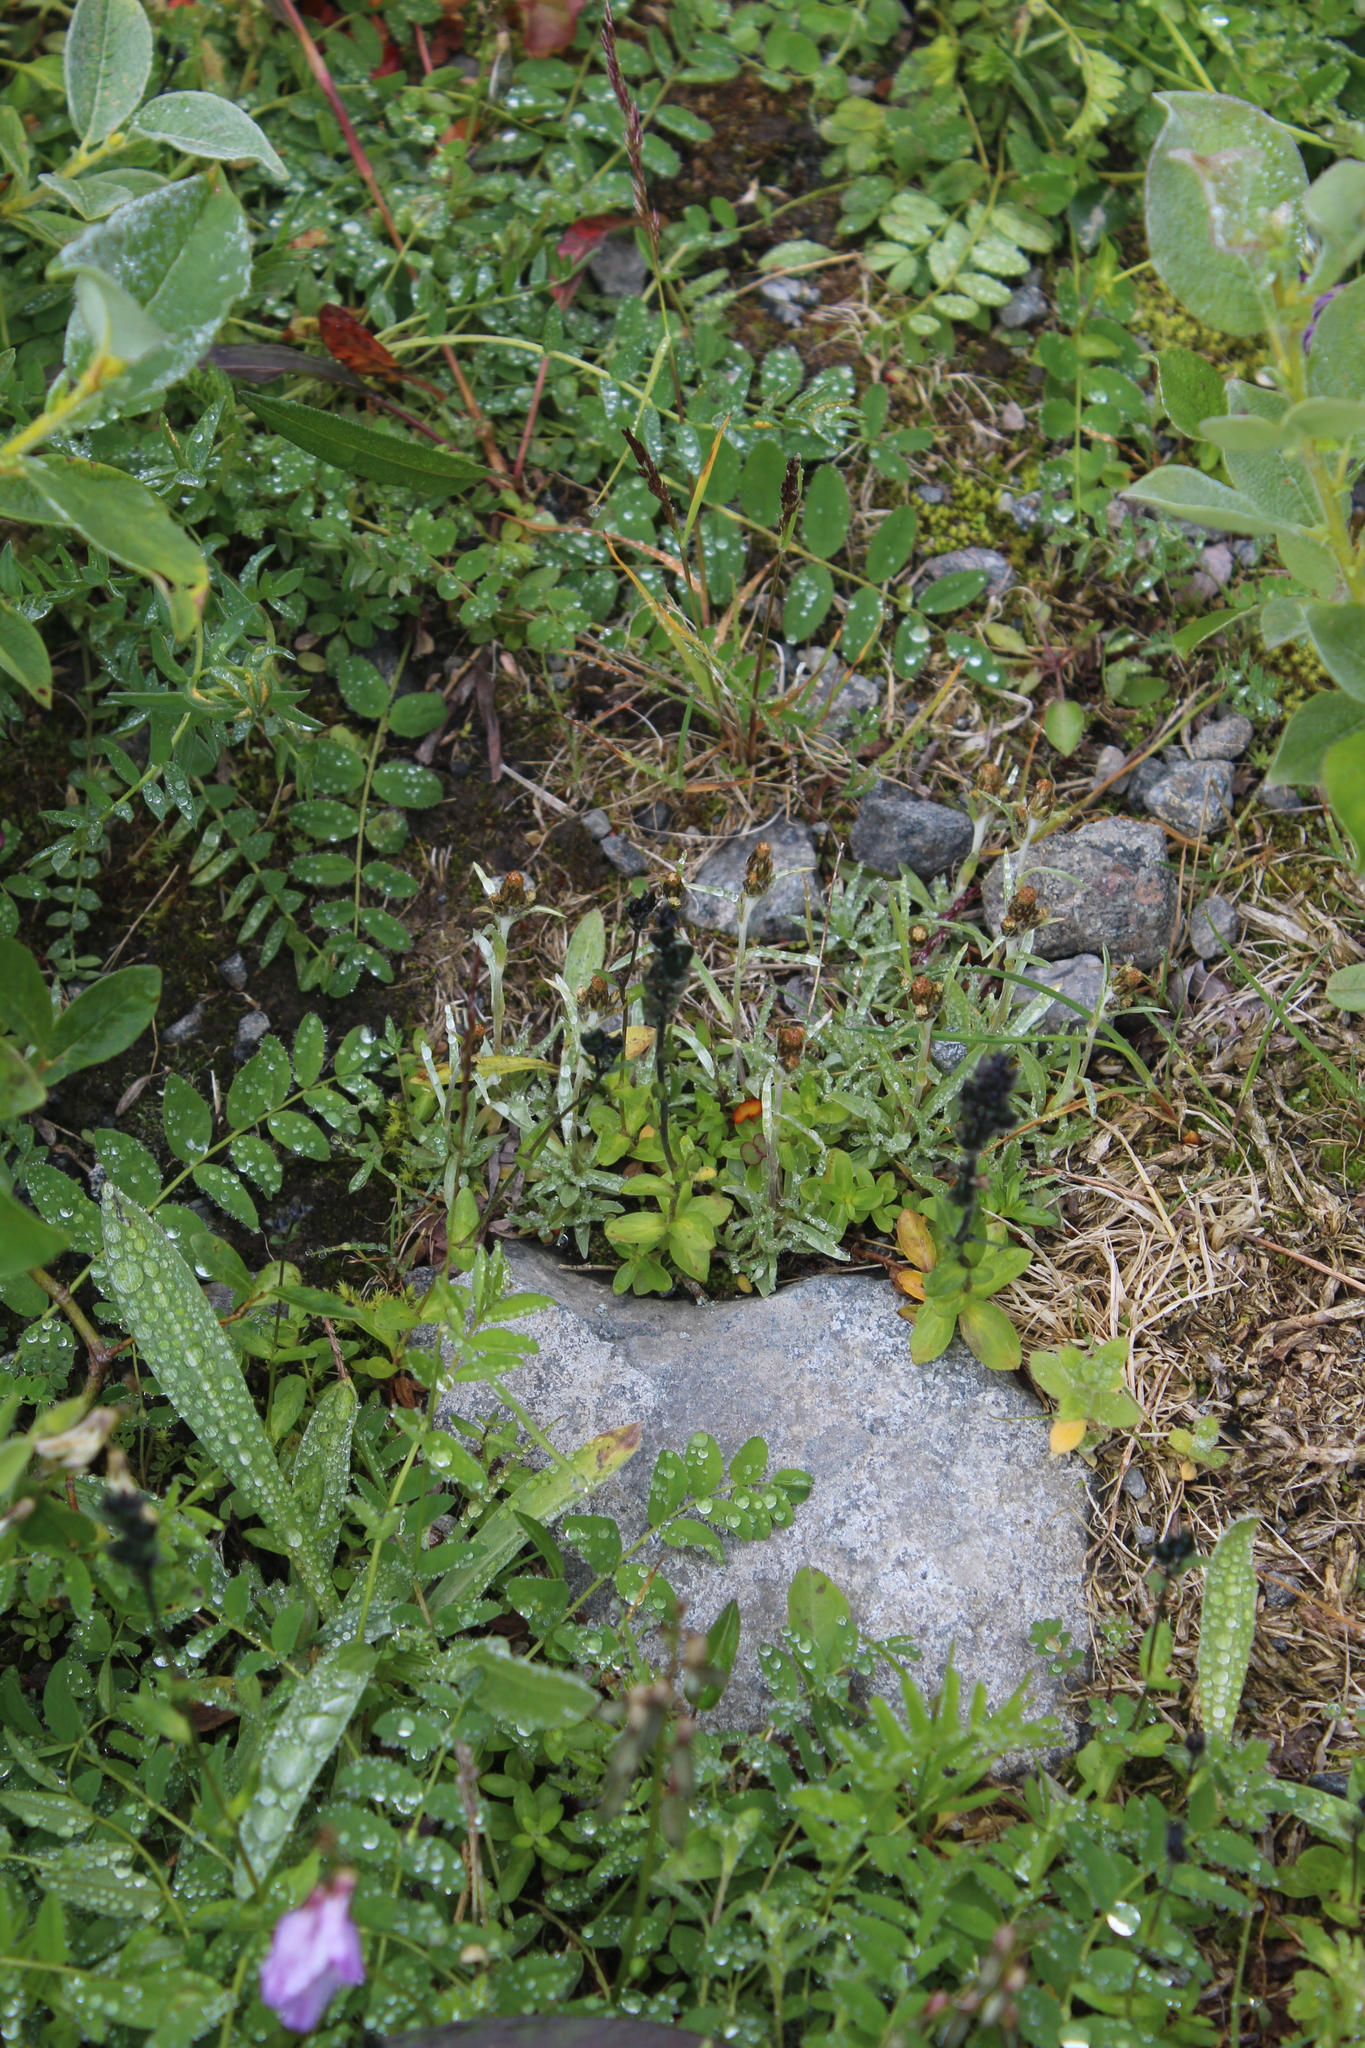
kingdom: Plantae
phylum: Tracheophyta
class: Magnoliopsida
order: Asterales
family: Asteraceae
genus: Omalotheca
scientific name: Omalotheca supina
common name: Alpine arctic-cudweed
